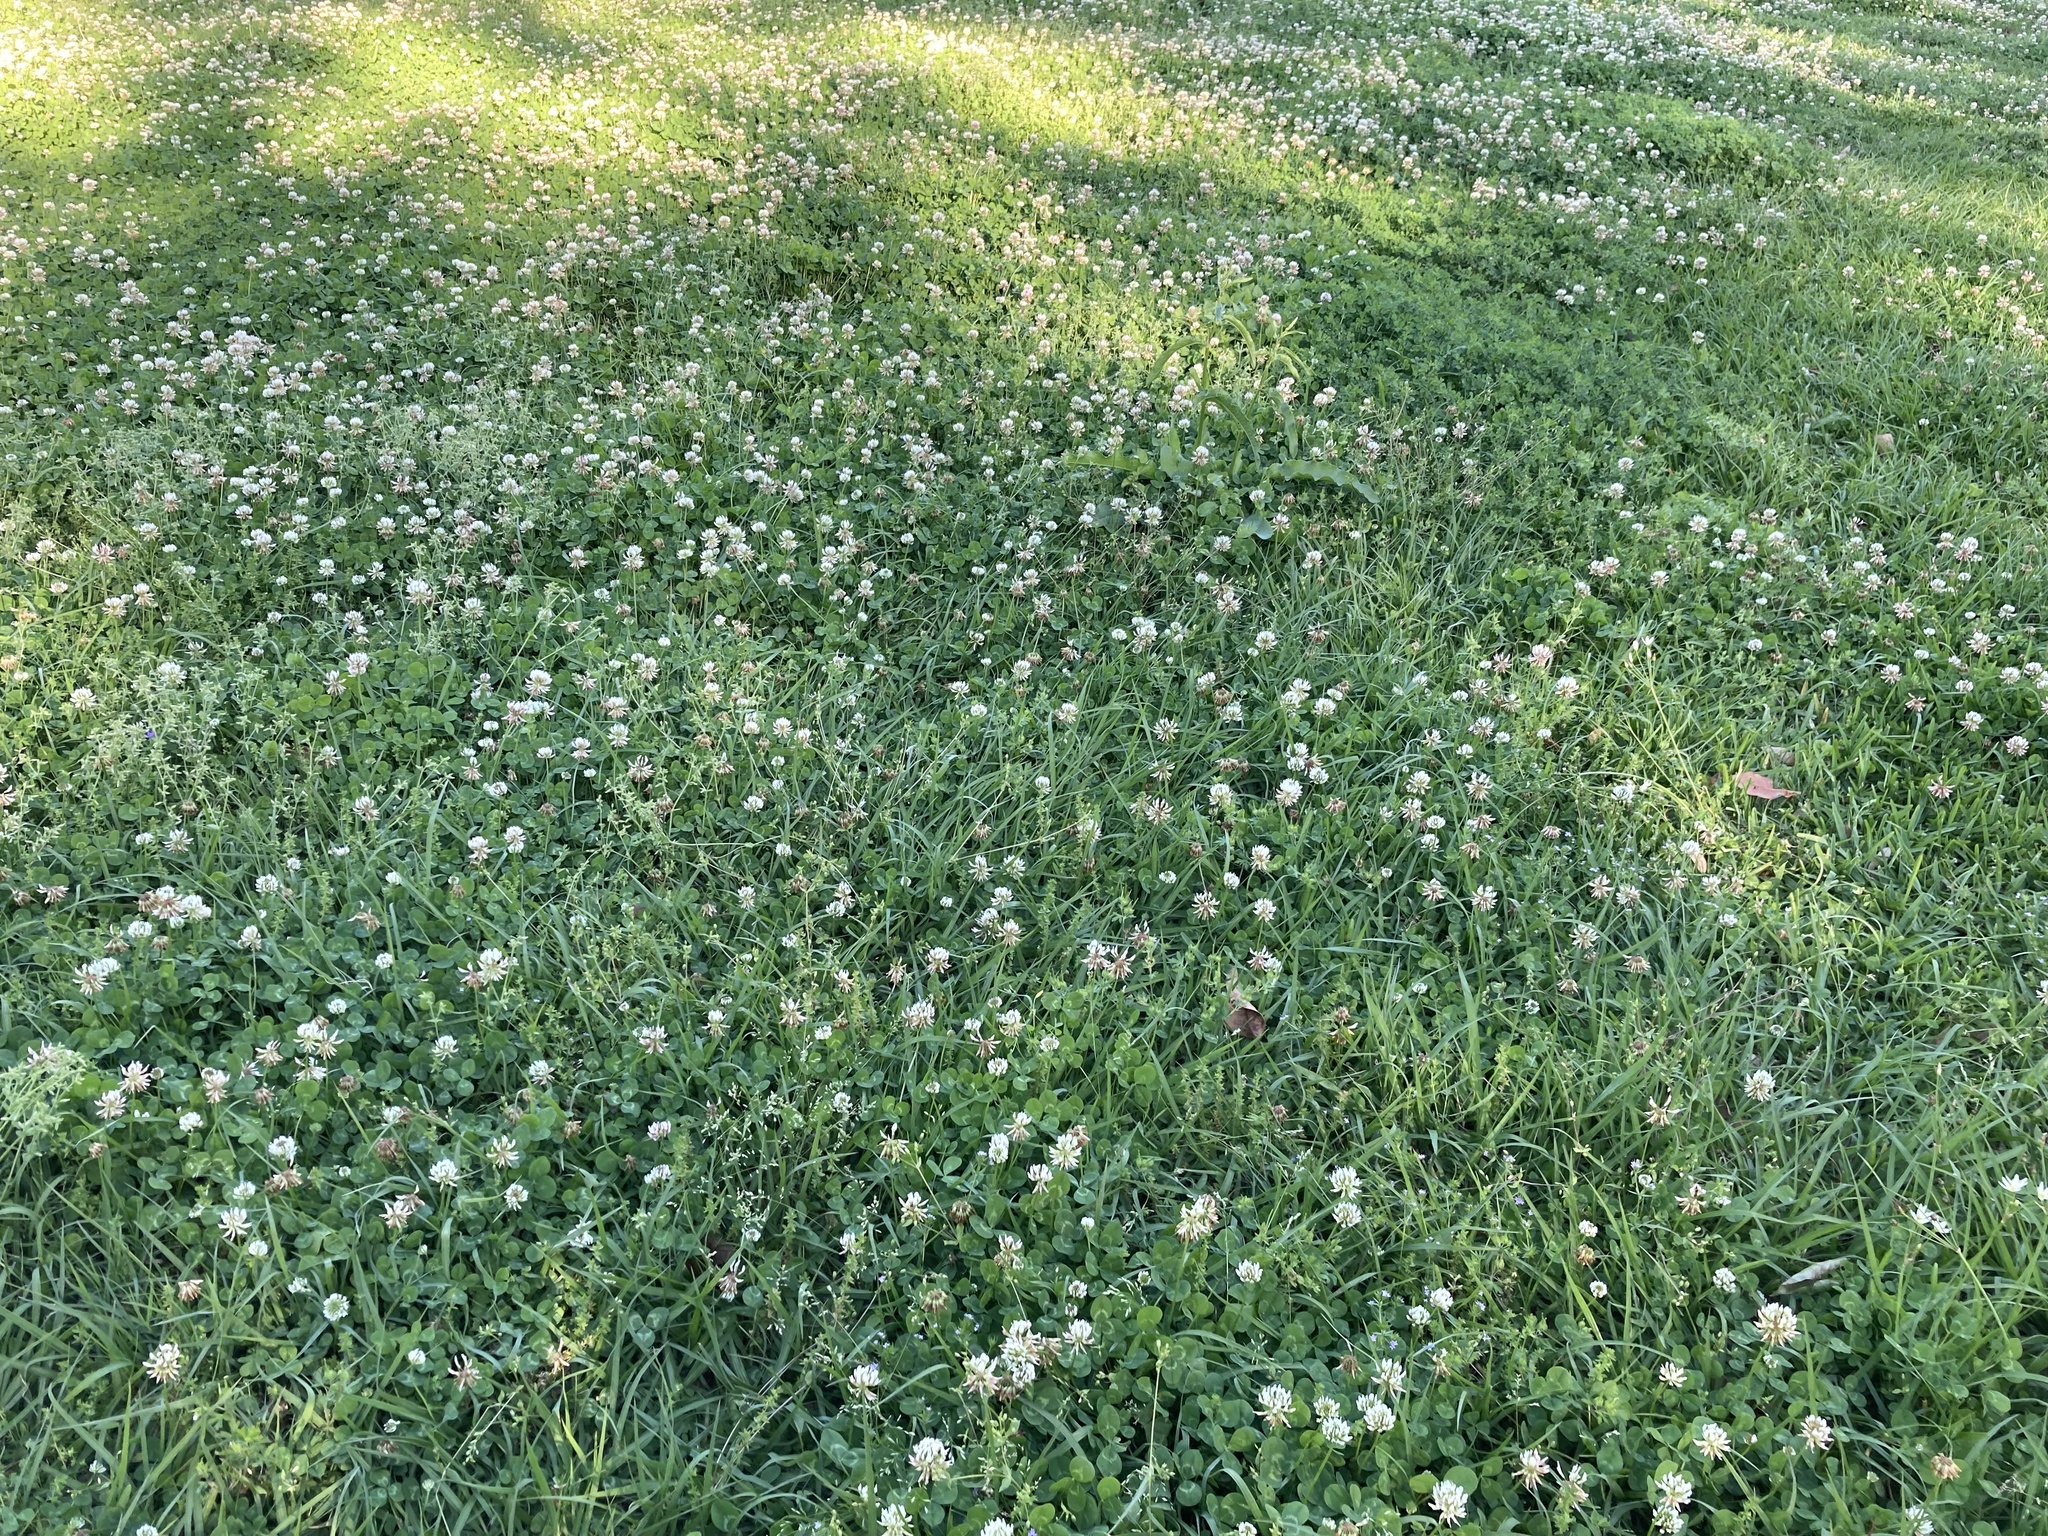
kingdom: Plantae
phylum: Tracheophyta
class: Magnoliopsida
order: Fabales
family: Fabaceae
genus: Trifolium
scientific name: Trifolium repens
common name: White clover
